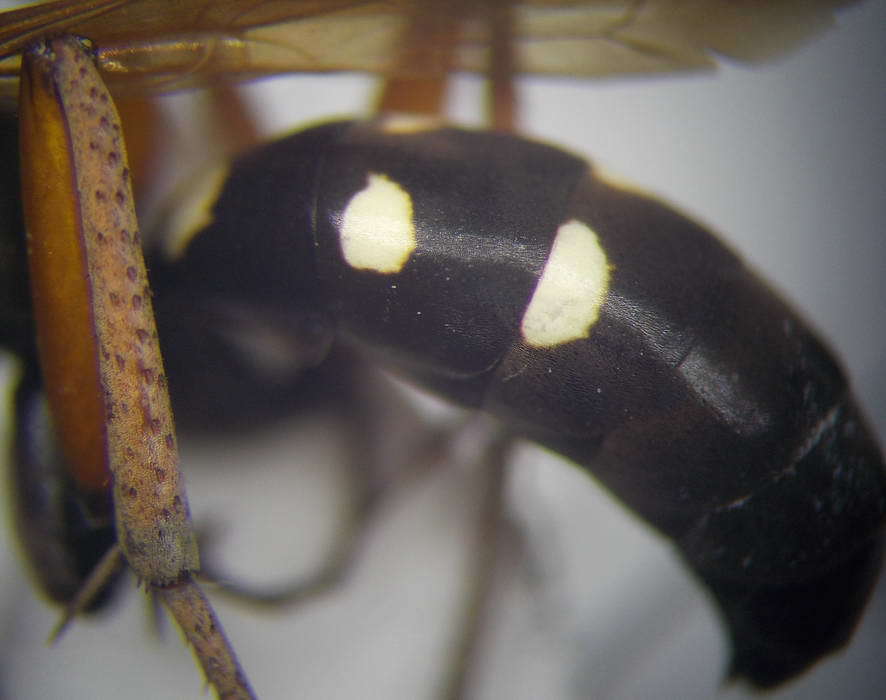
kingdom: Animalia
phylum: Arthropoda
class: Insecta
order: Hymenoptera
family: Pompilidae
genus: Cryptocheilus
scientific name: Cryptocheilus variabilis
